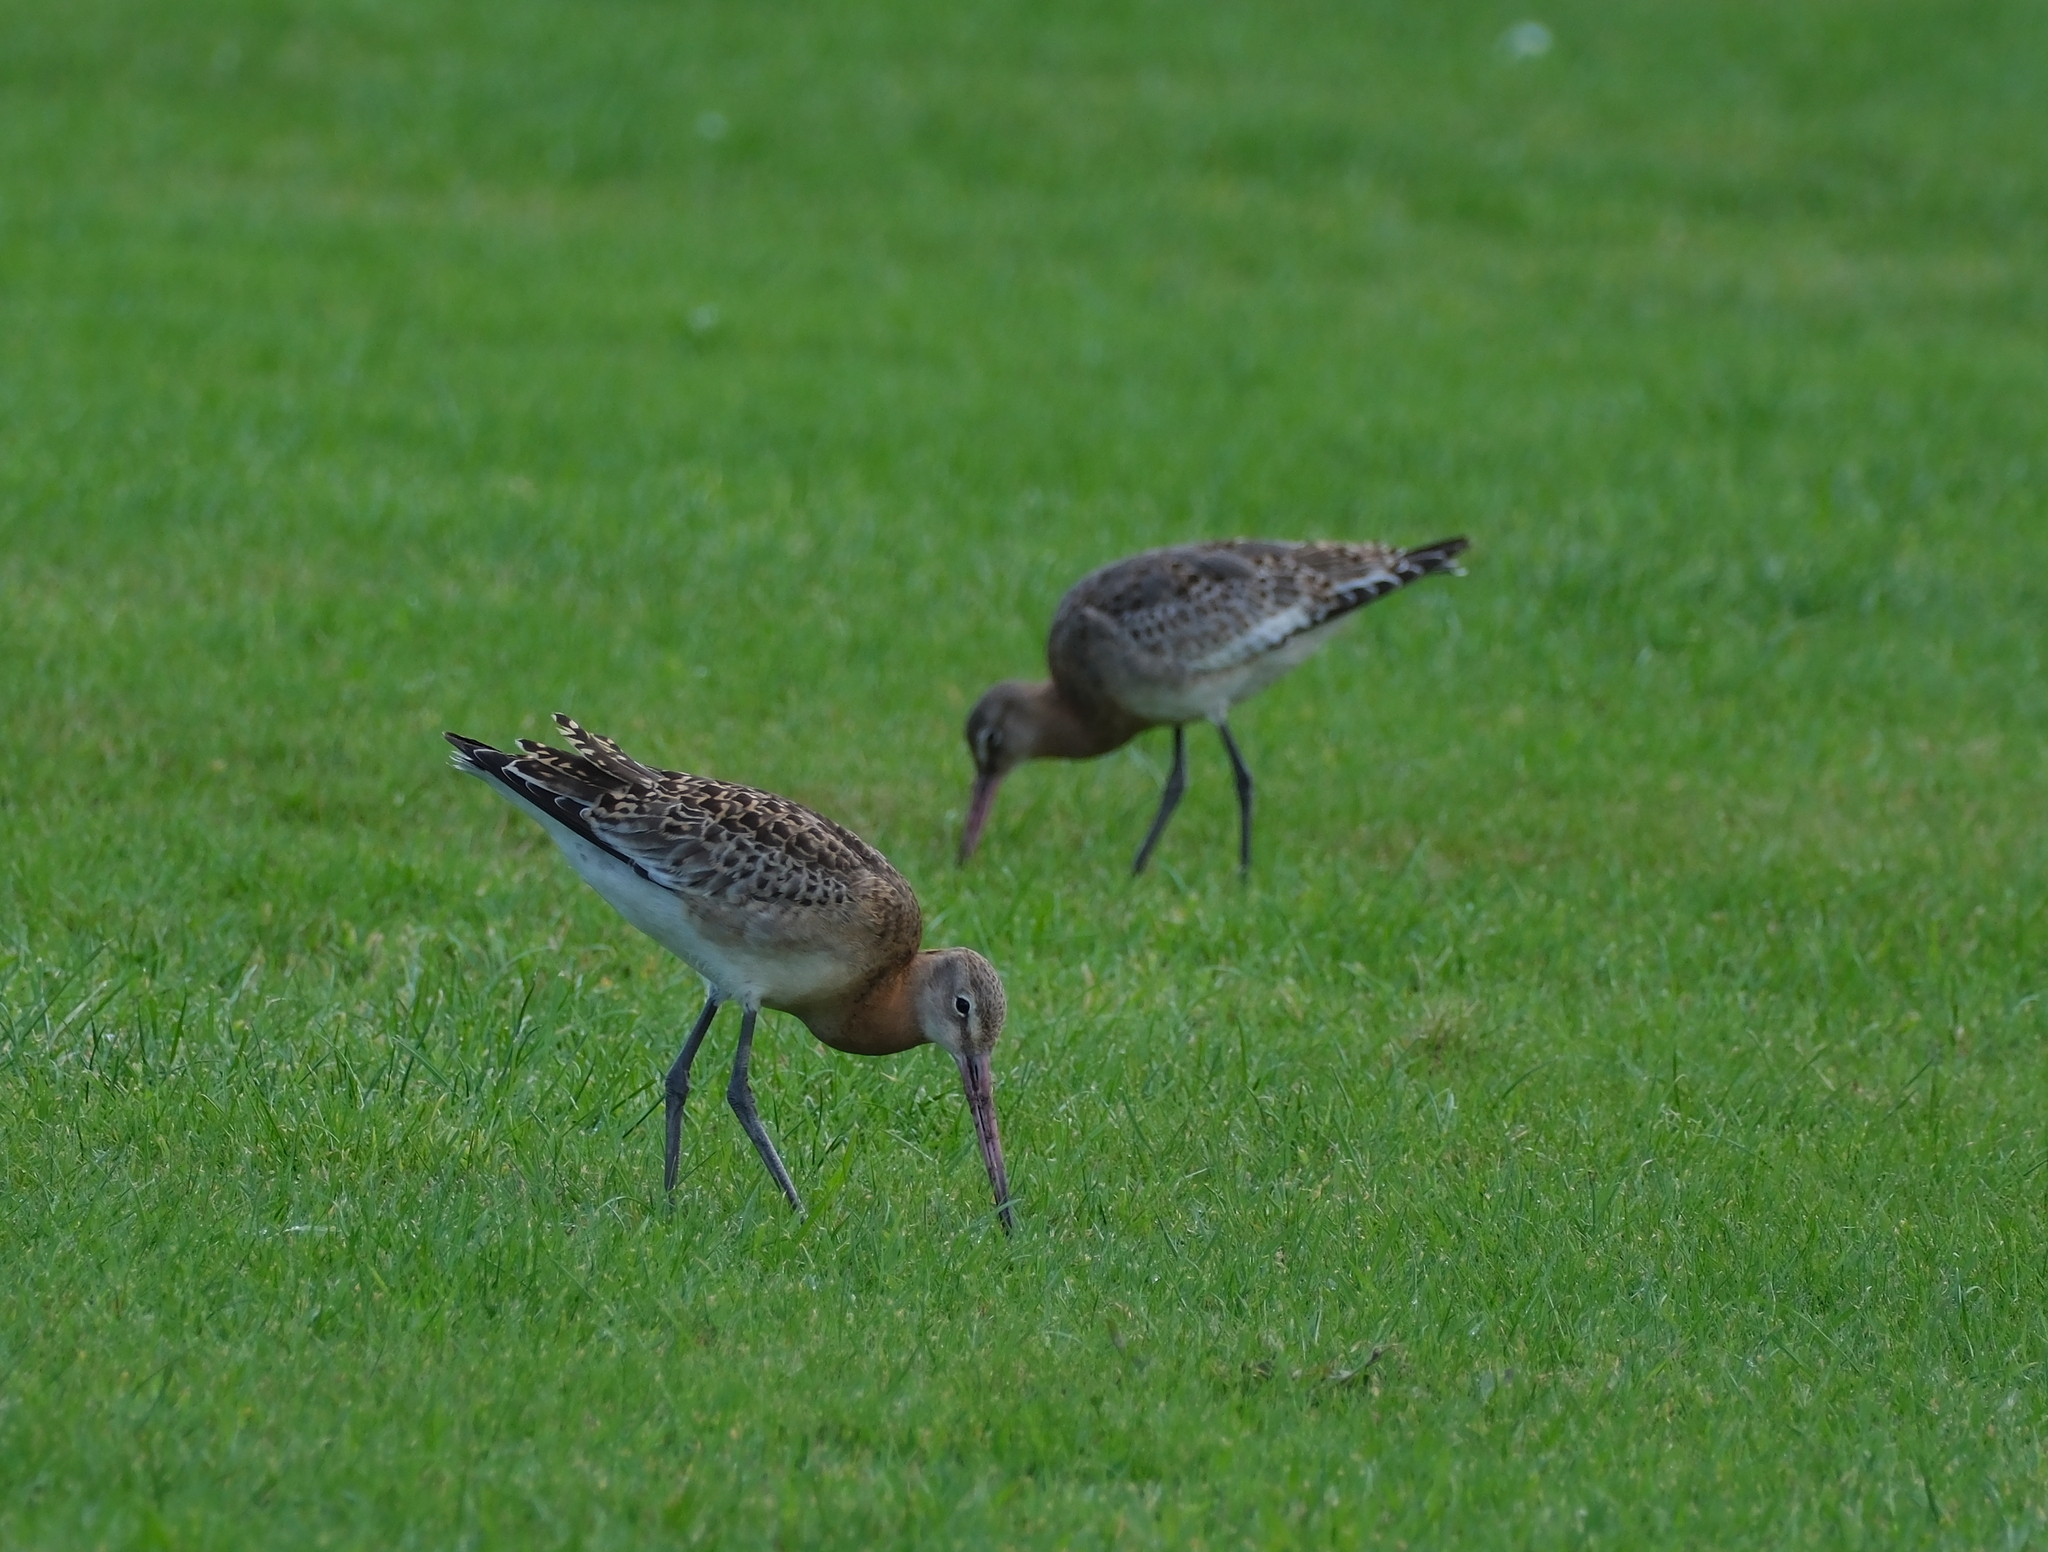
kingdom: Animalia
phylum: Chordata
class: Aves
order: Charadriiformes
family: Scolopacidae
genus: Limosa
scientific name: Limosa limosa
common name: Black-tailed godwit
